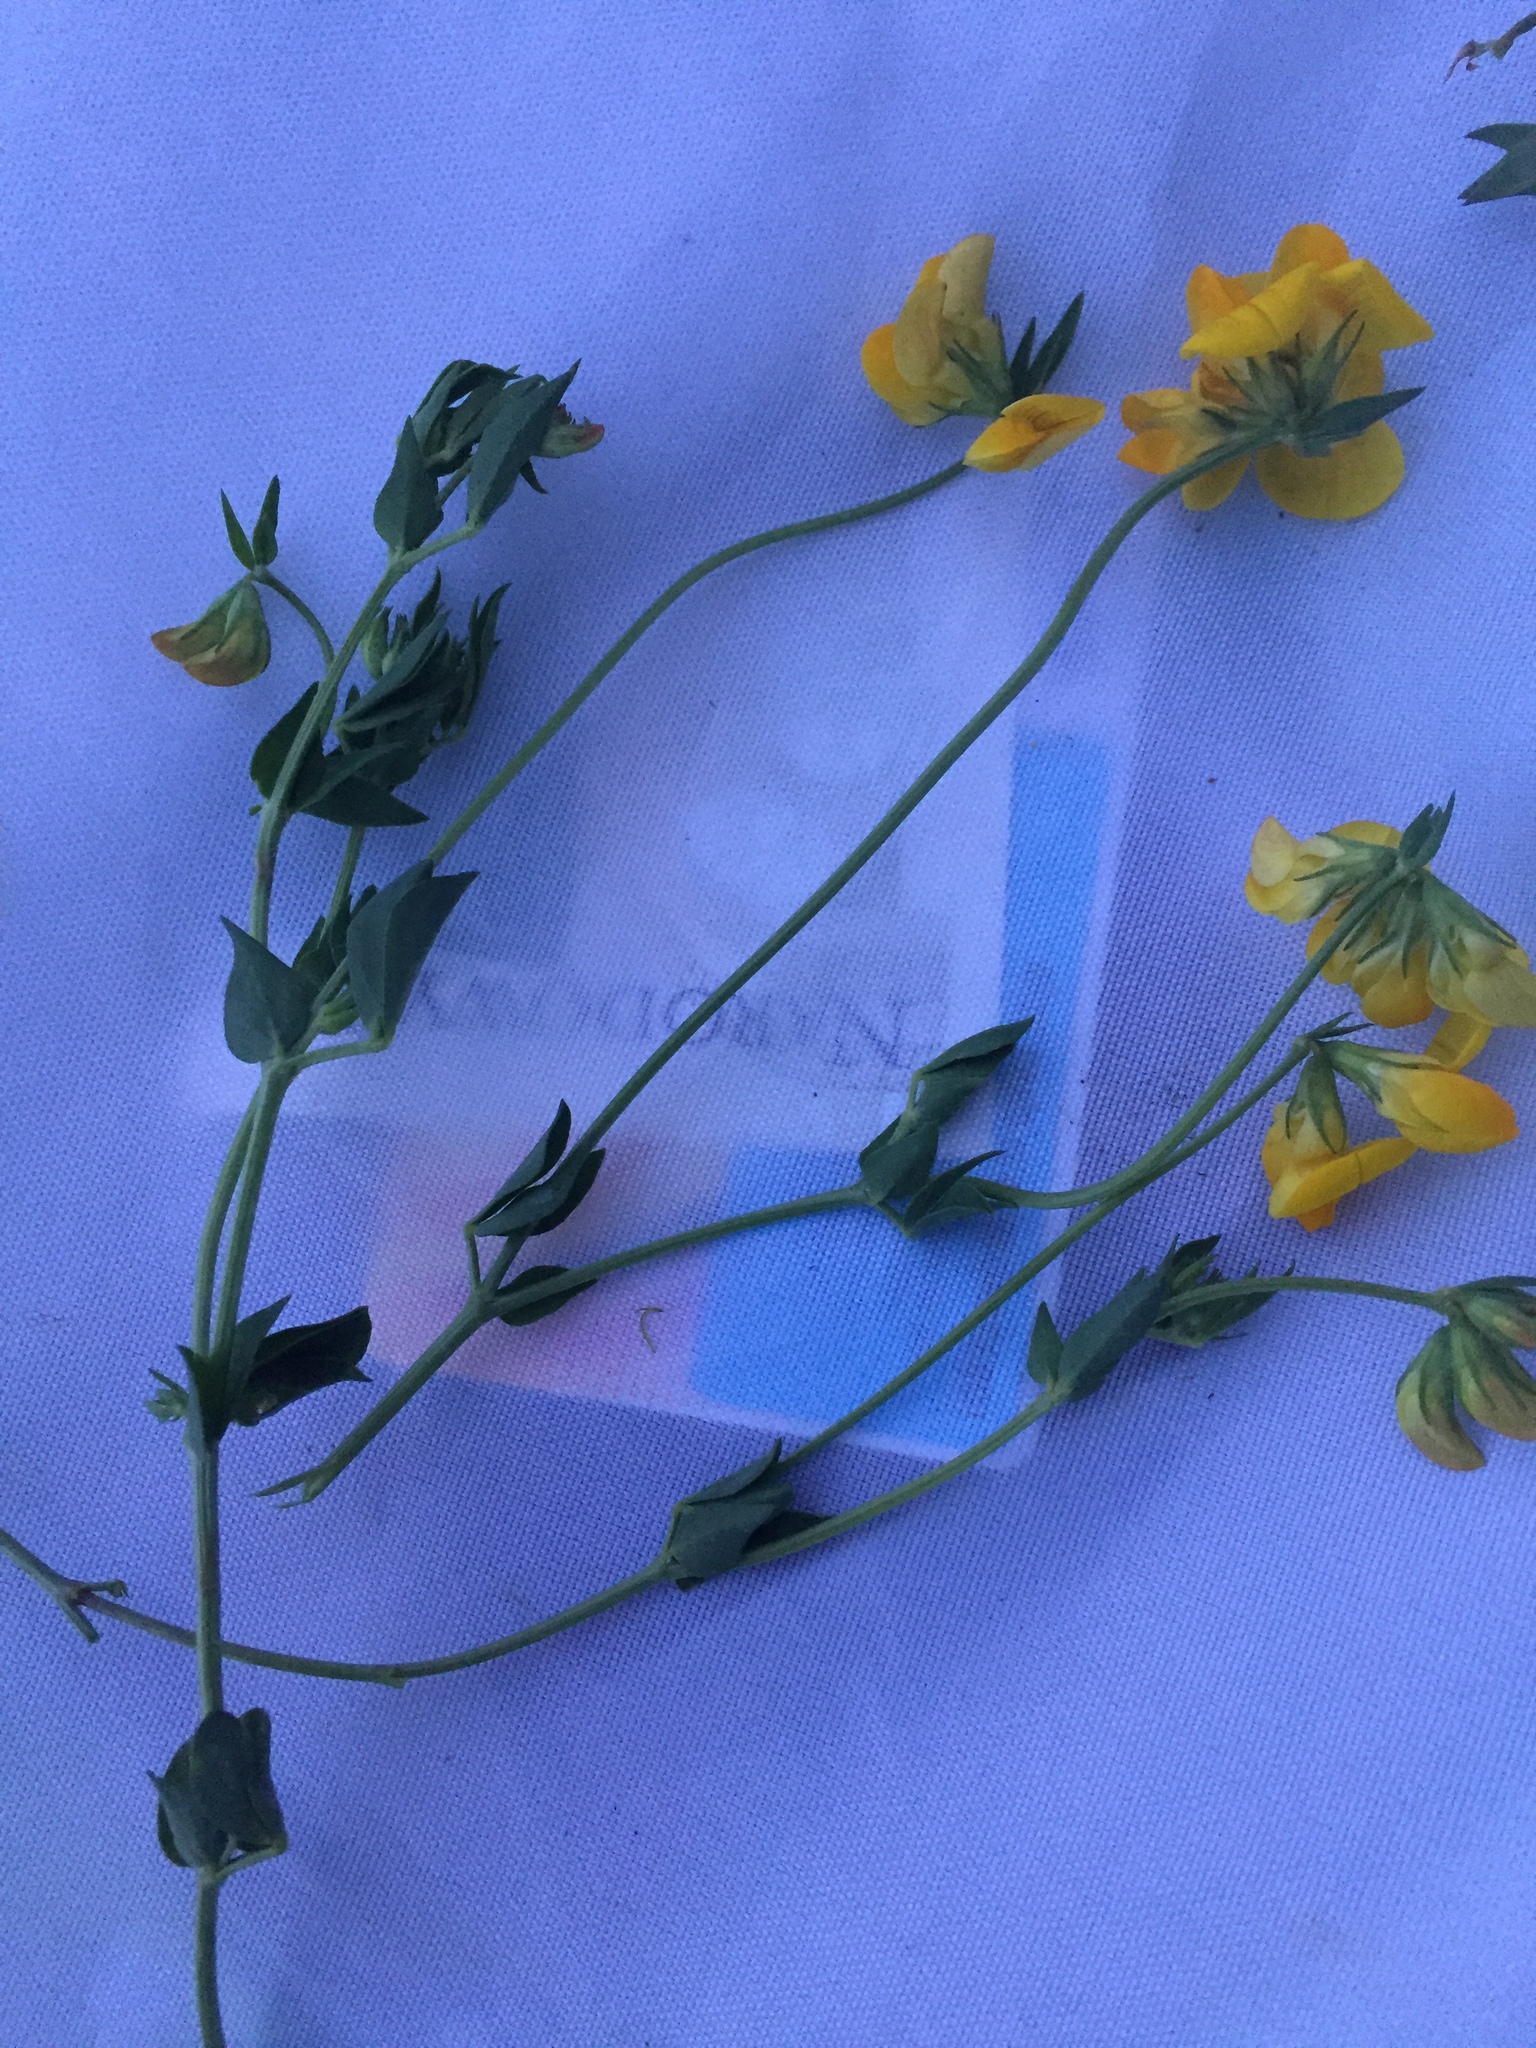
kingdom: Plantae
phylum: Tracheophyta
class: Magnoliopsida
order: Fabales
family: Fabaceae
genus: Lotus
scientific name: Lotus corniculatus
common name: Common bird's-foot-trefoil
